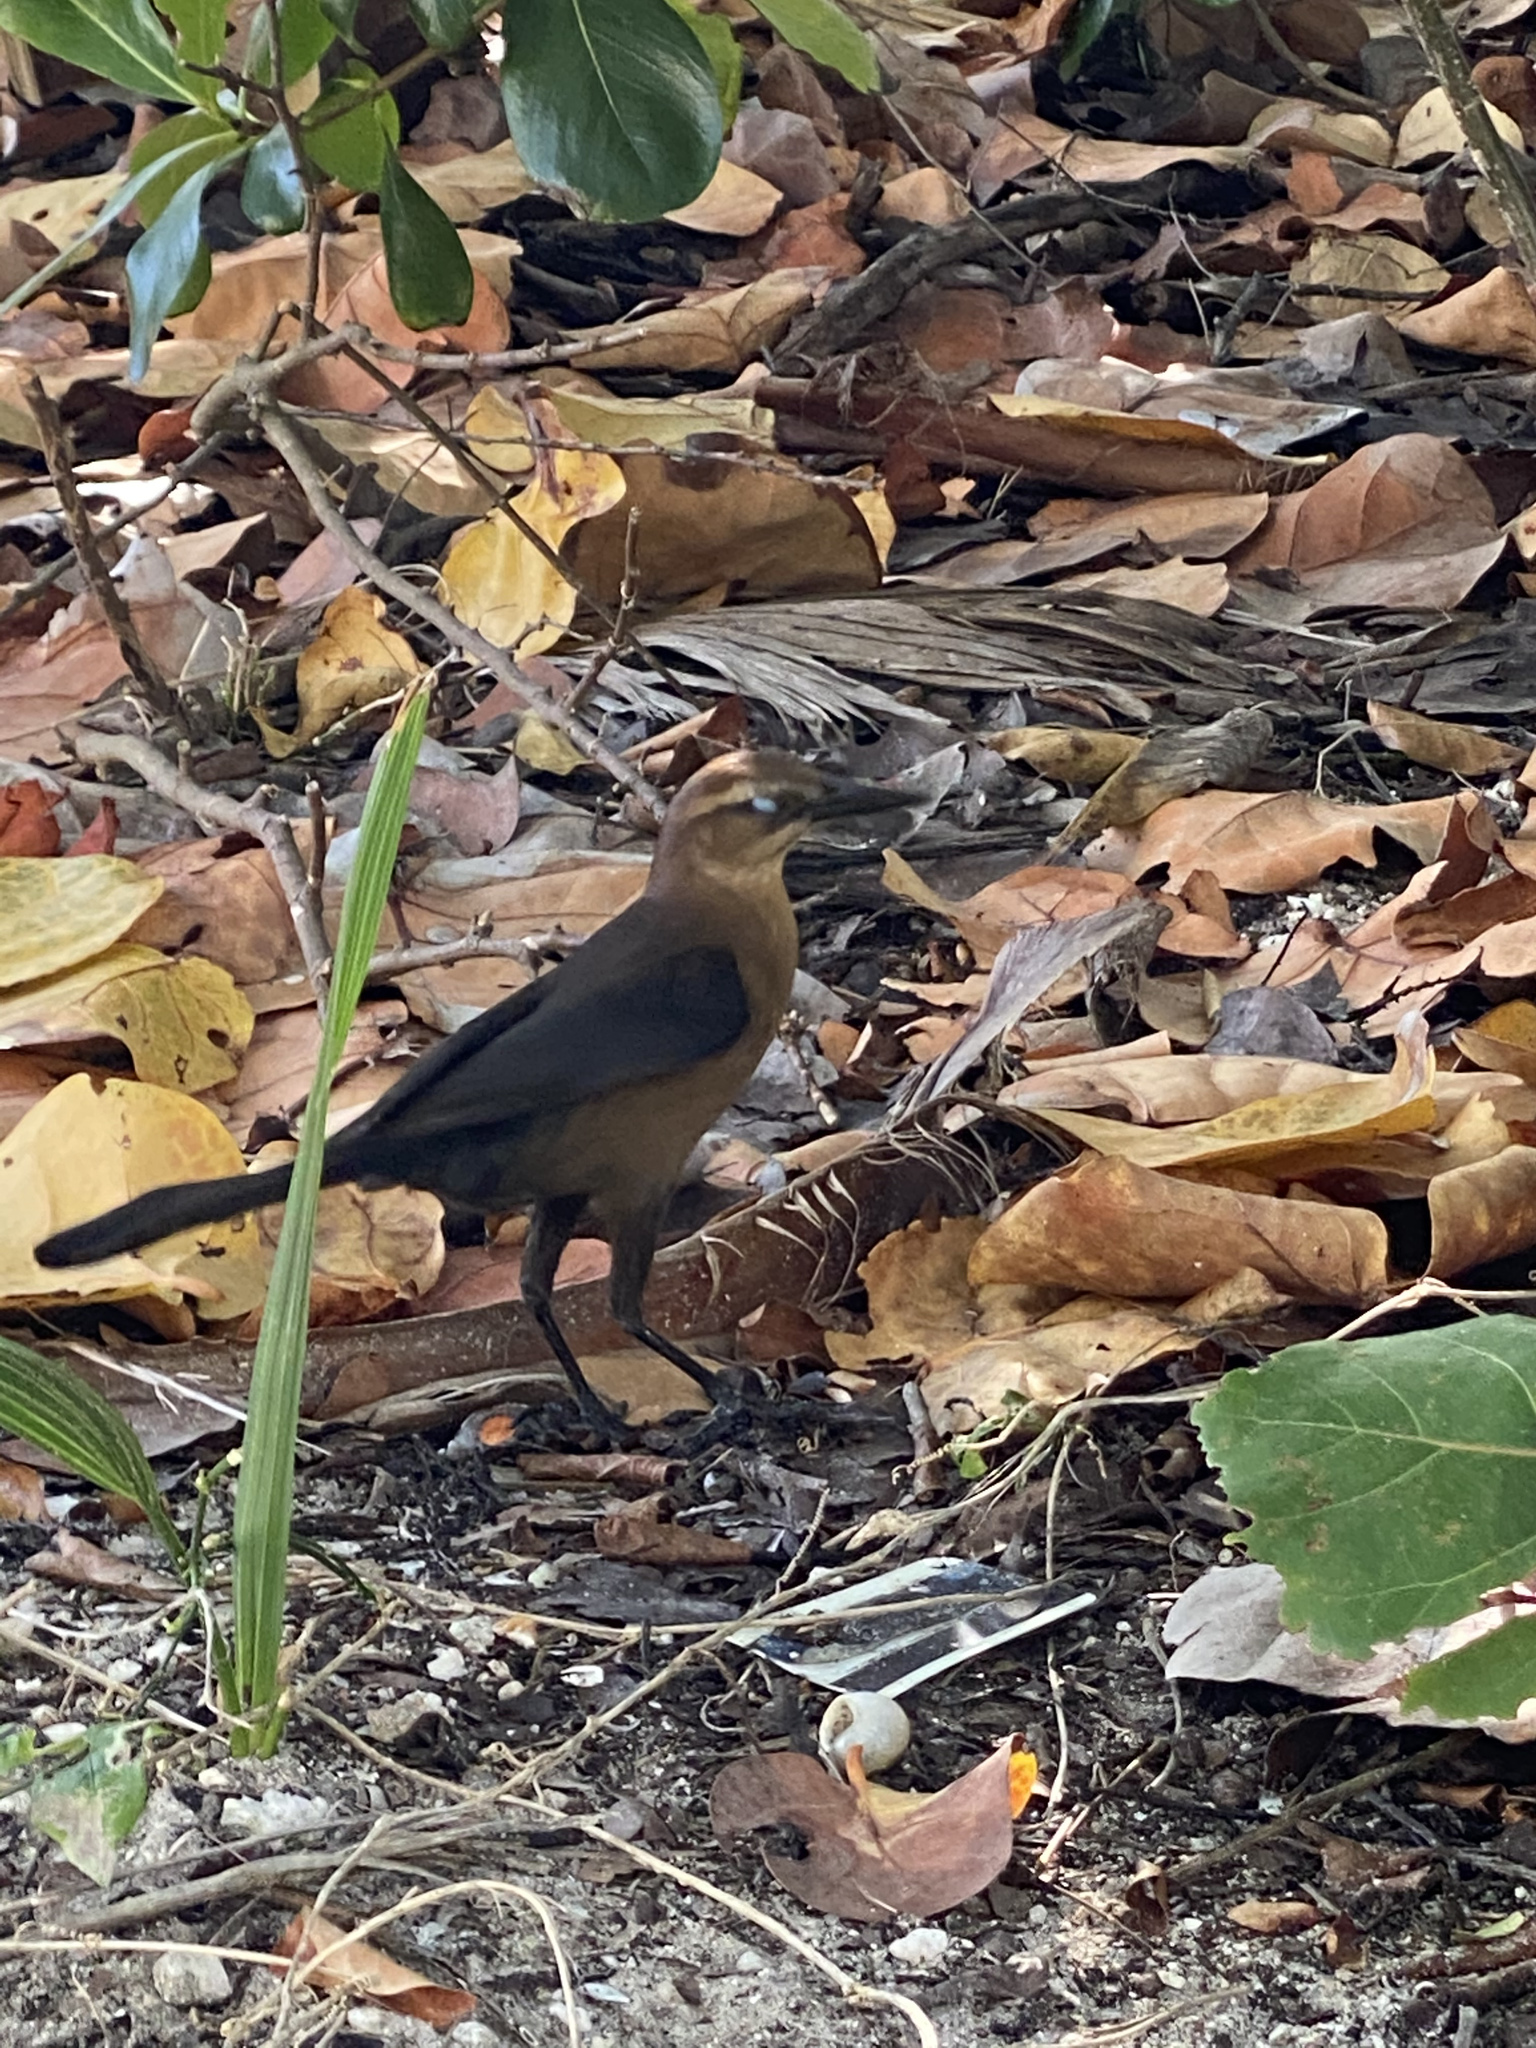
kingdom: Animalia
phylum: Chordata
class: Aves
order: Passeriformes
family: Icteridae
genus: Quiscalus
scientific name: Quiscalus major
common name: Boat-tailed grackle
